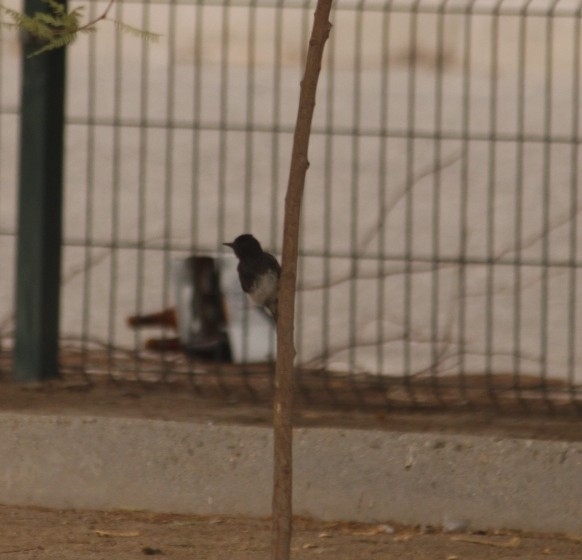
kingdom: Animalia
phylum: Chordata
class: Aves
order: Passeriformes
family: Tyrannidae
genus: Sayornis
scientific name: Sayornis nigricans
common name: Black phoebe
